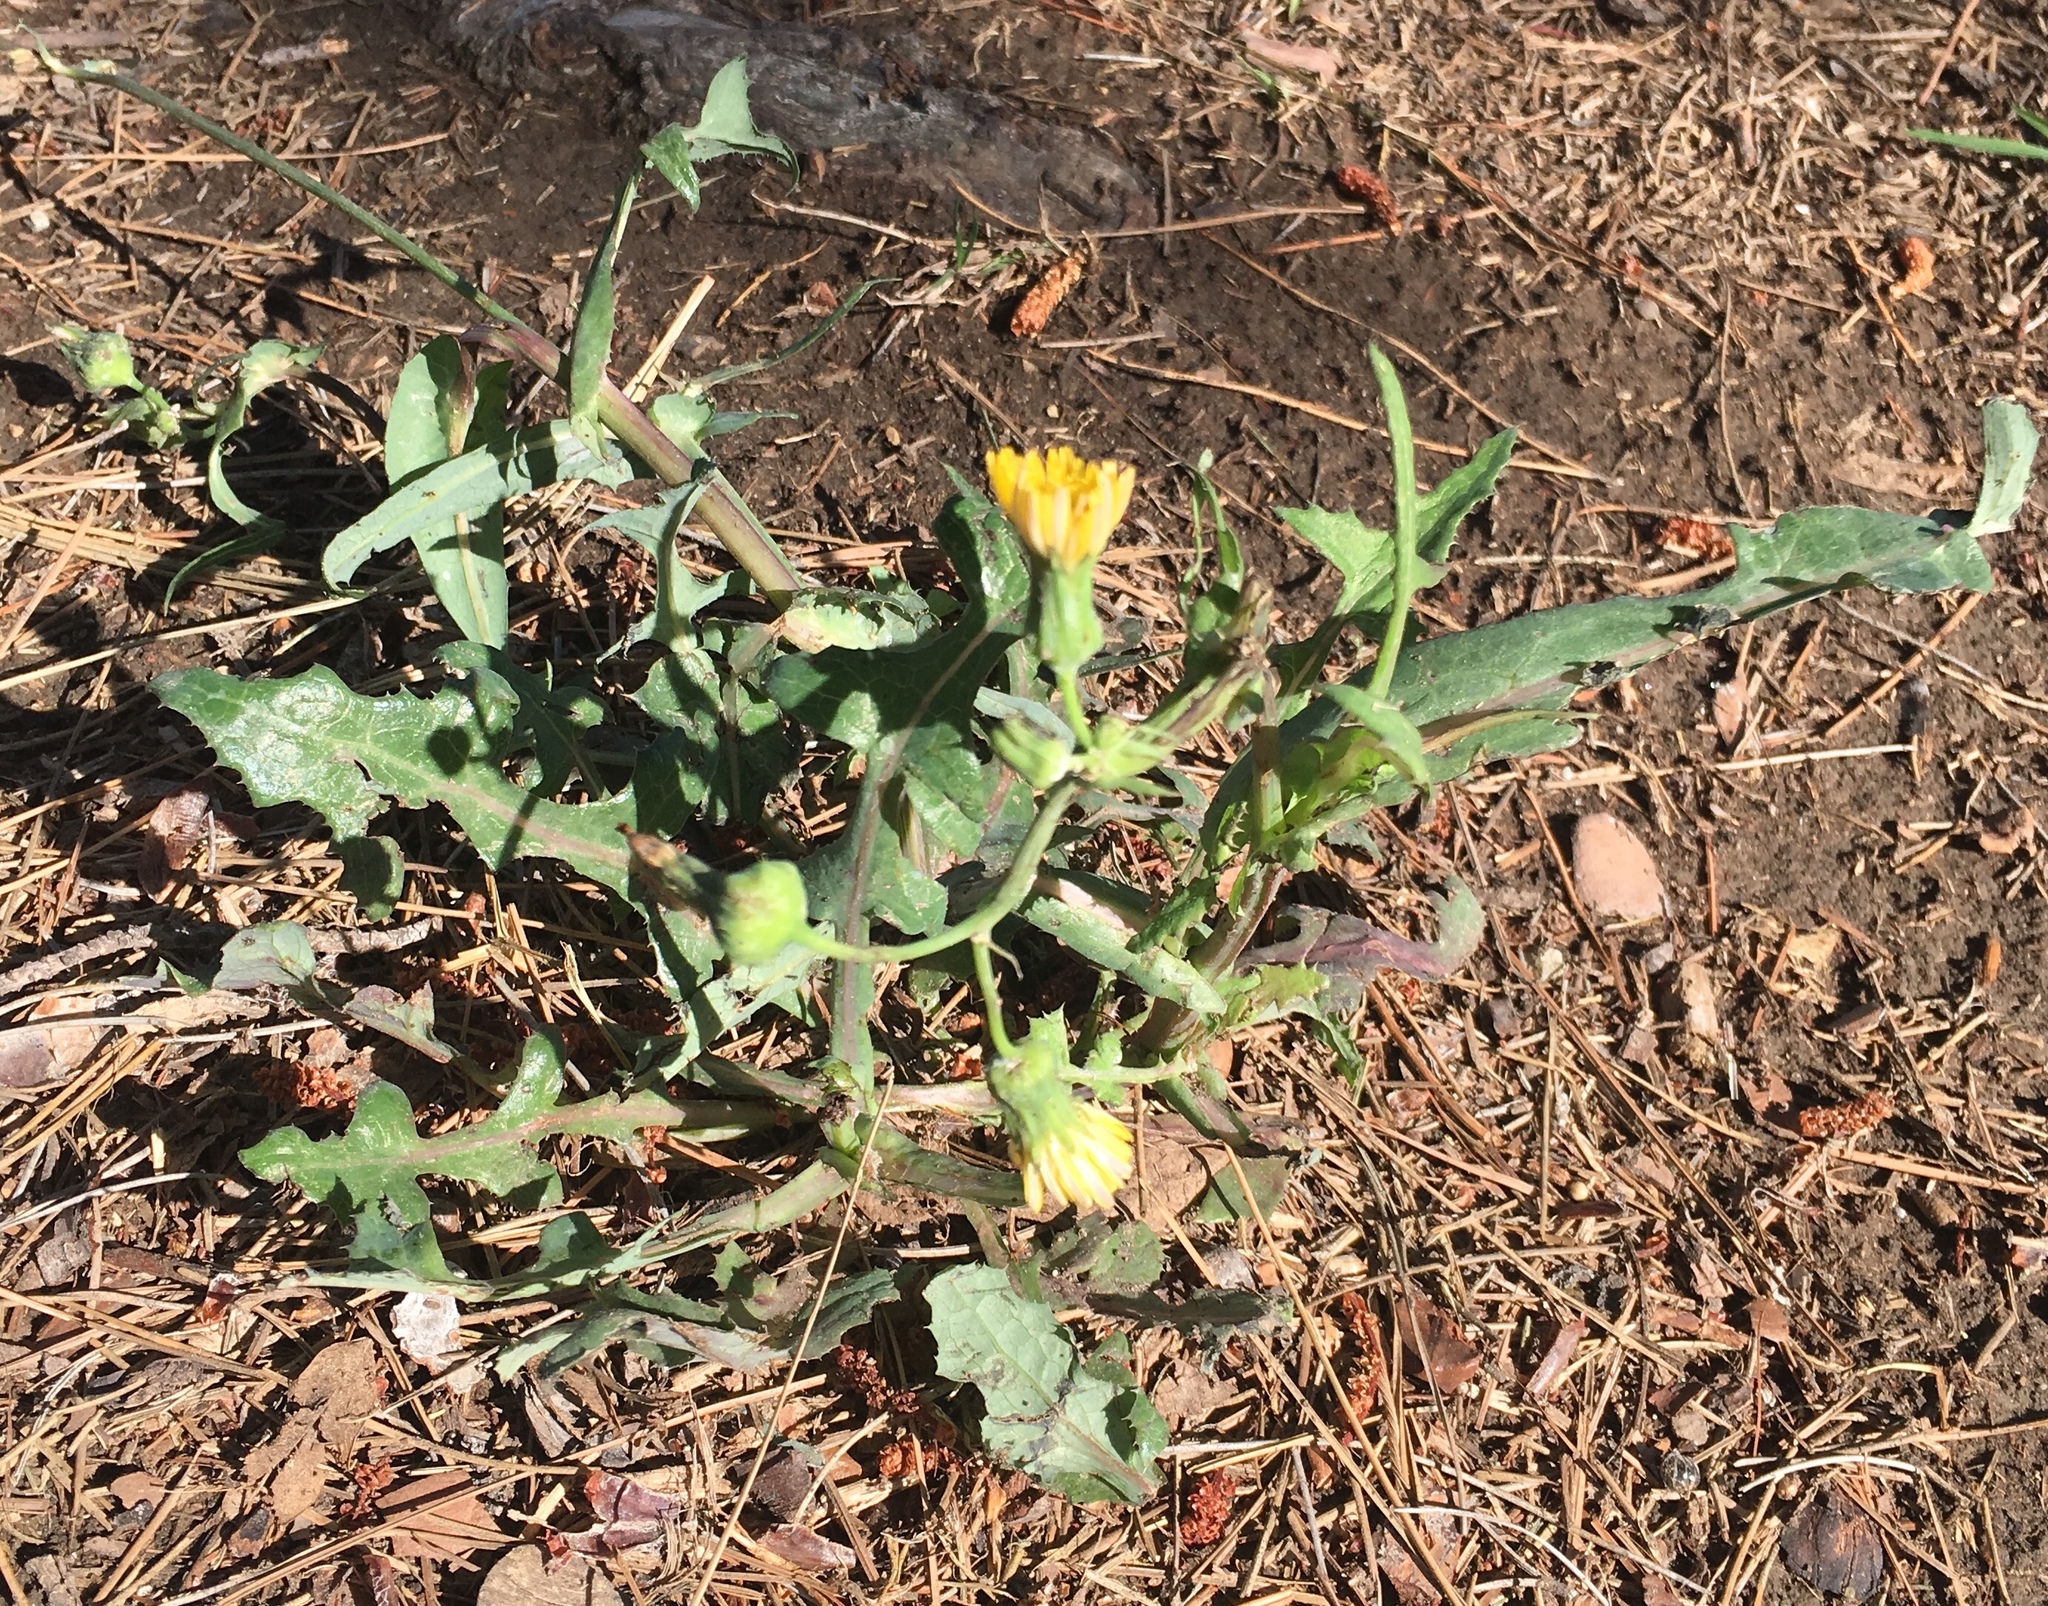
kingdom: Plantae
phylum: Tracheophyta
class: Magnoliopsida
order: Asterales
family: Asteraceae
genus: Sonchus
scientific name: Sonchus oleraceus
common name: Common sowthistle
